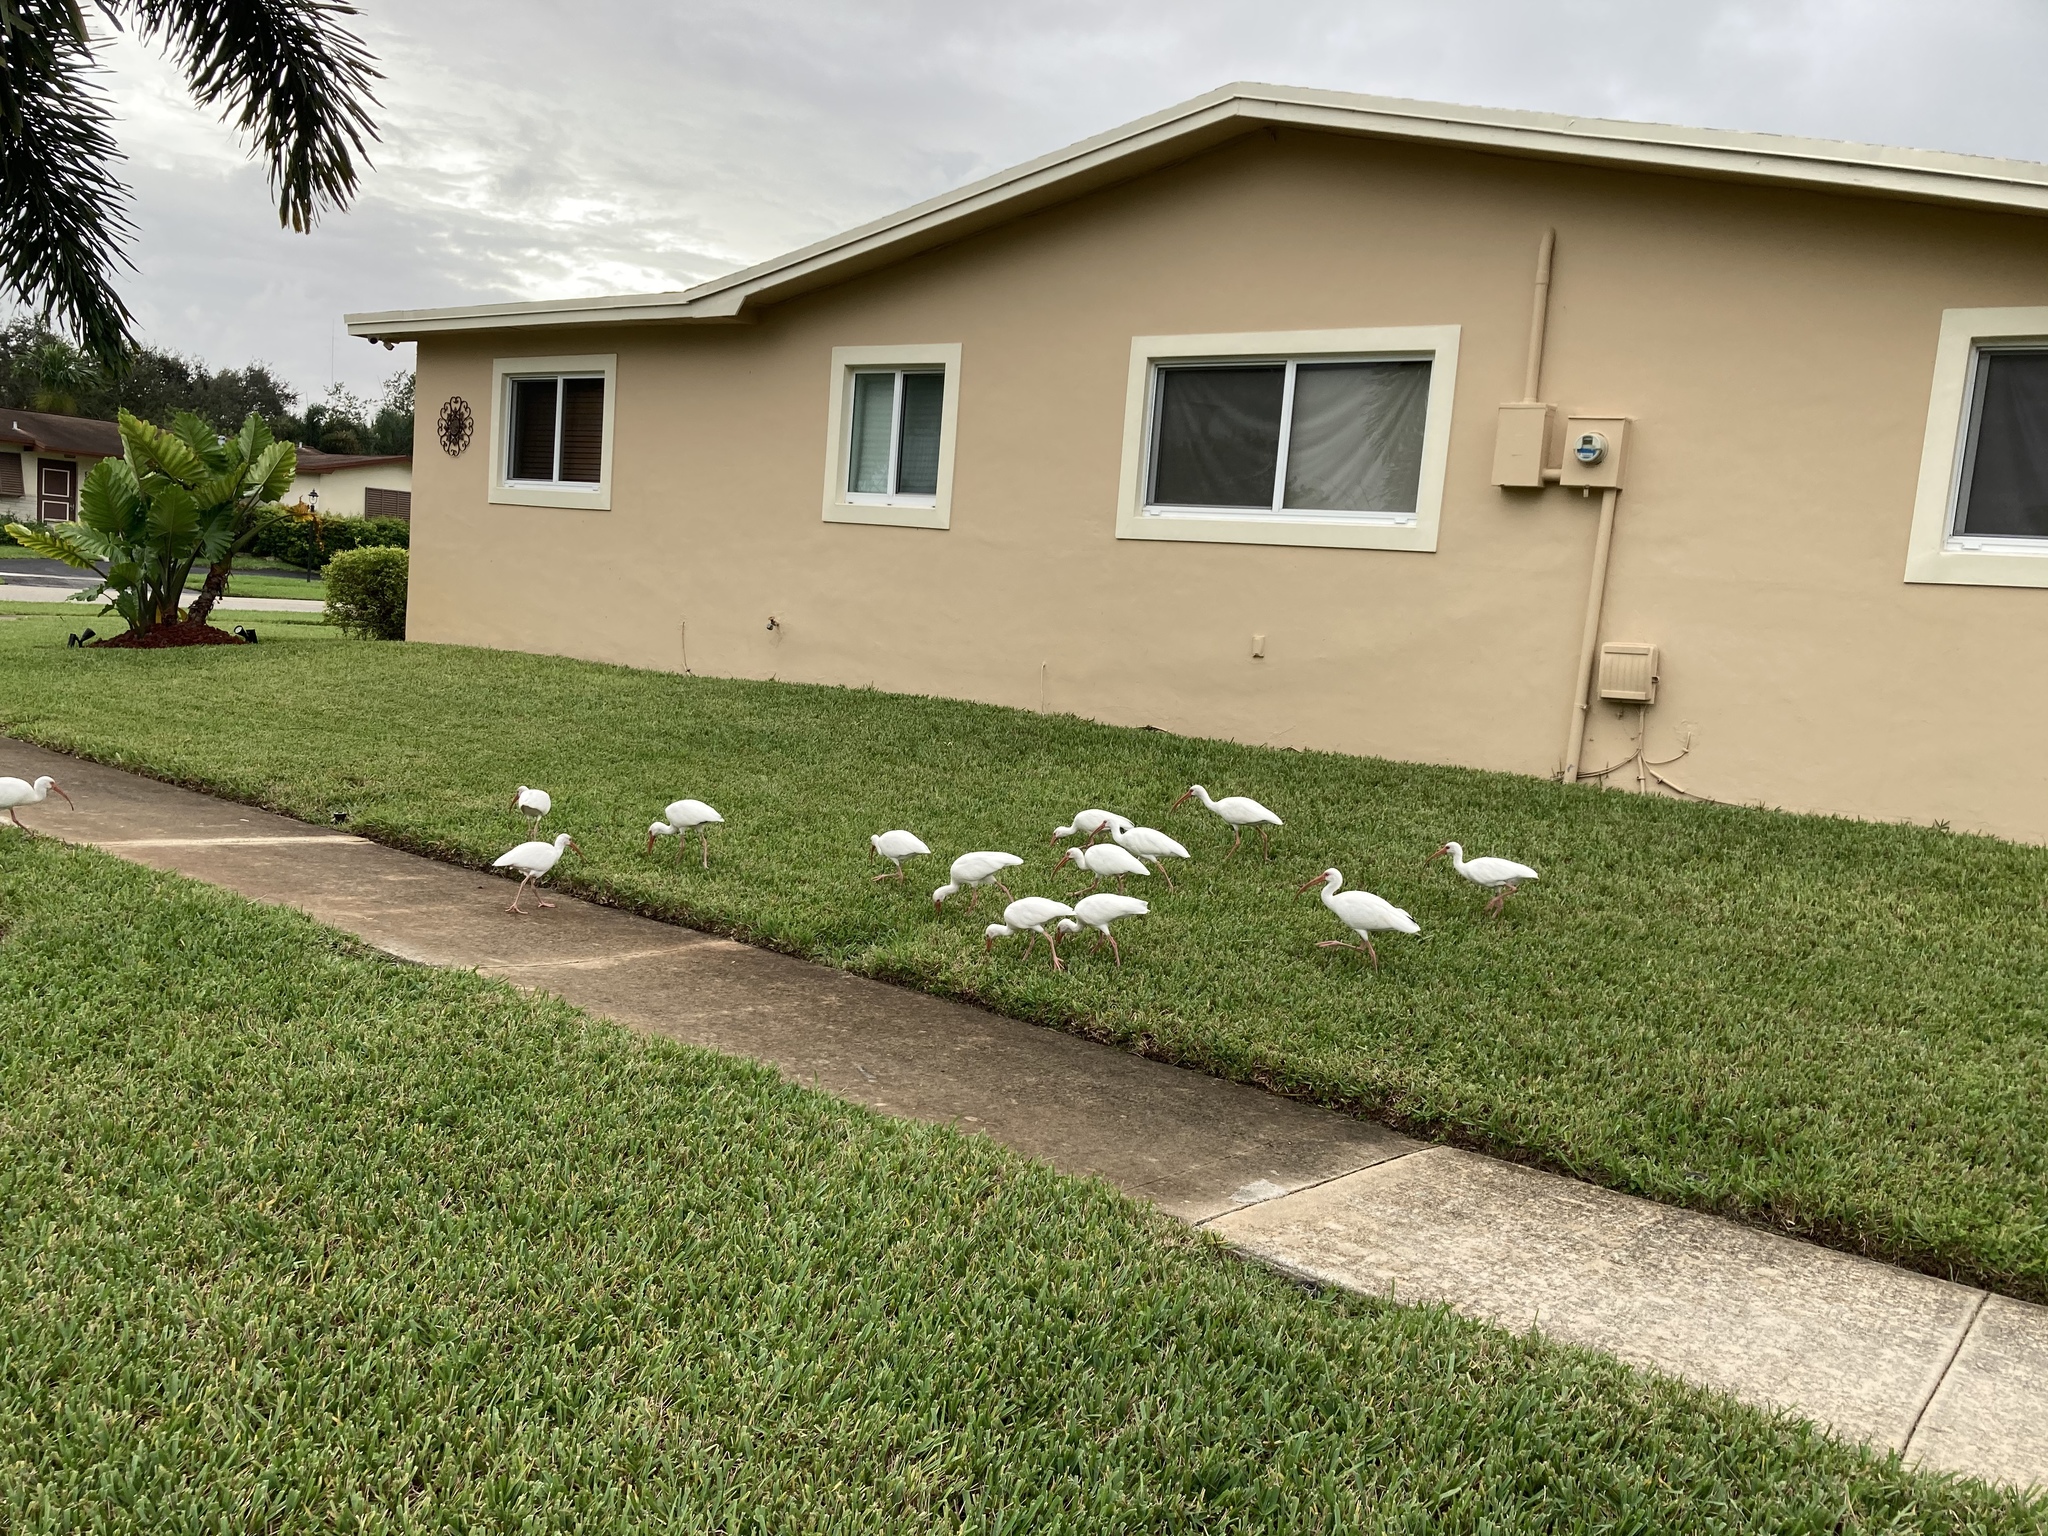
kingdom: Animalia
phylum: Chordata
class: Aves
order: Pelecaniformes
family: Threskiornithidae
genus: Eudocimus
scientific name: Eudocimus albus
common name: White ibis
